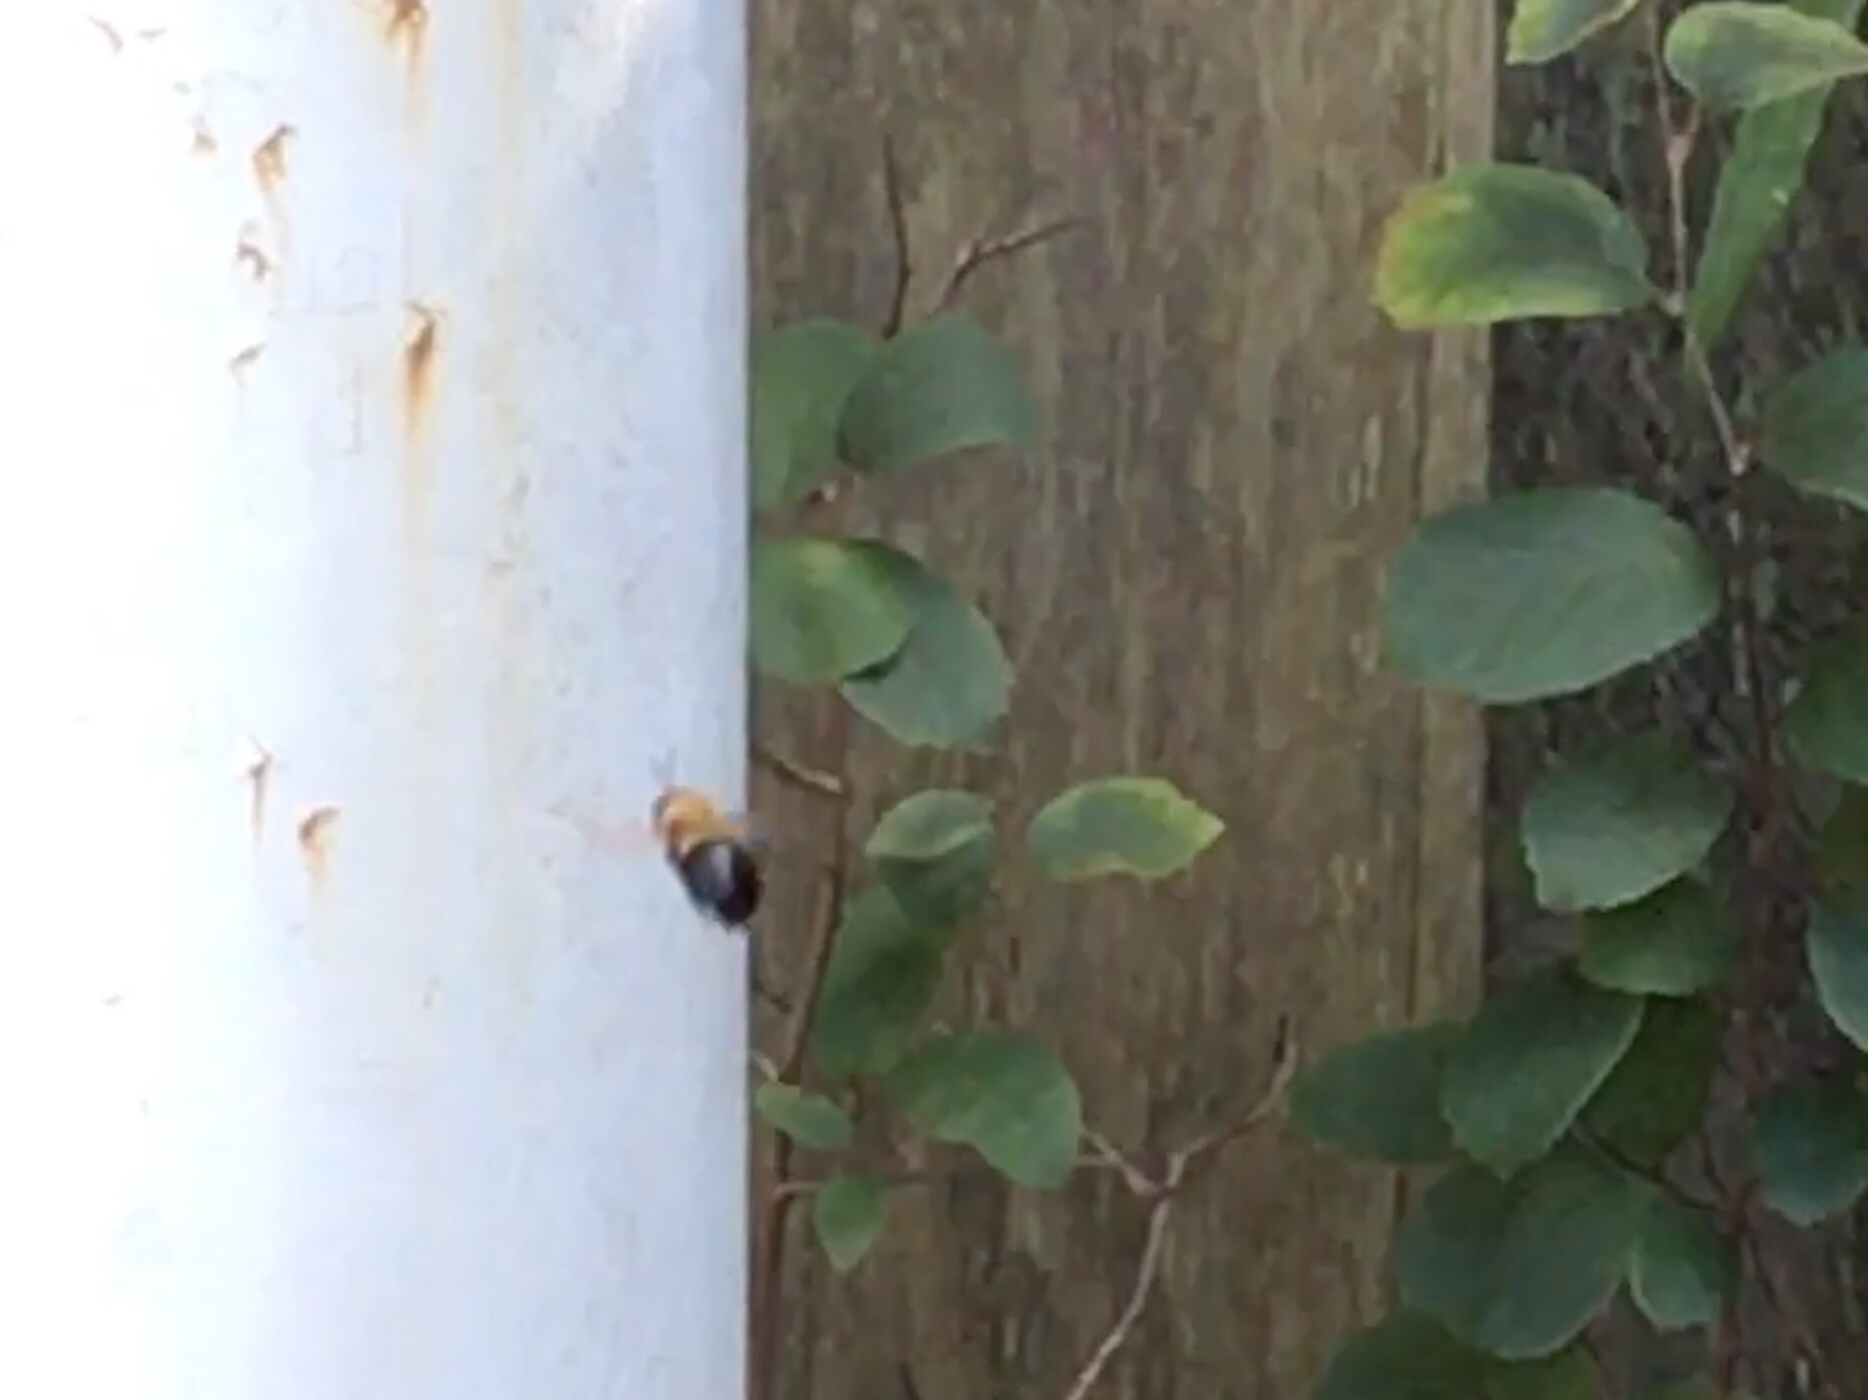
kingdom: Animalia
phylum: Arthropoda
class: Insecta
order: Hymenoptera
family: Apidae
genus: Xylocopa
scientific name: Xylocopa virginica
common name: Carpenter bee
